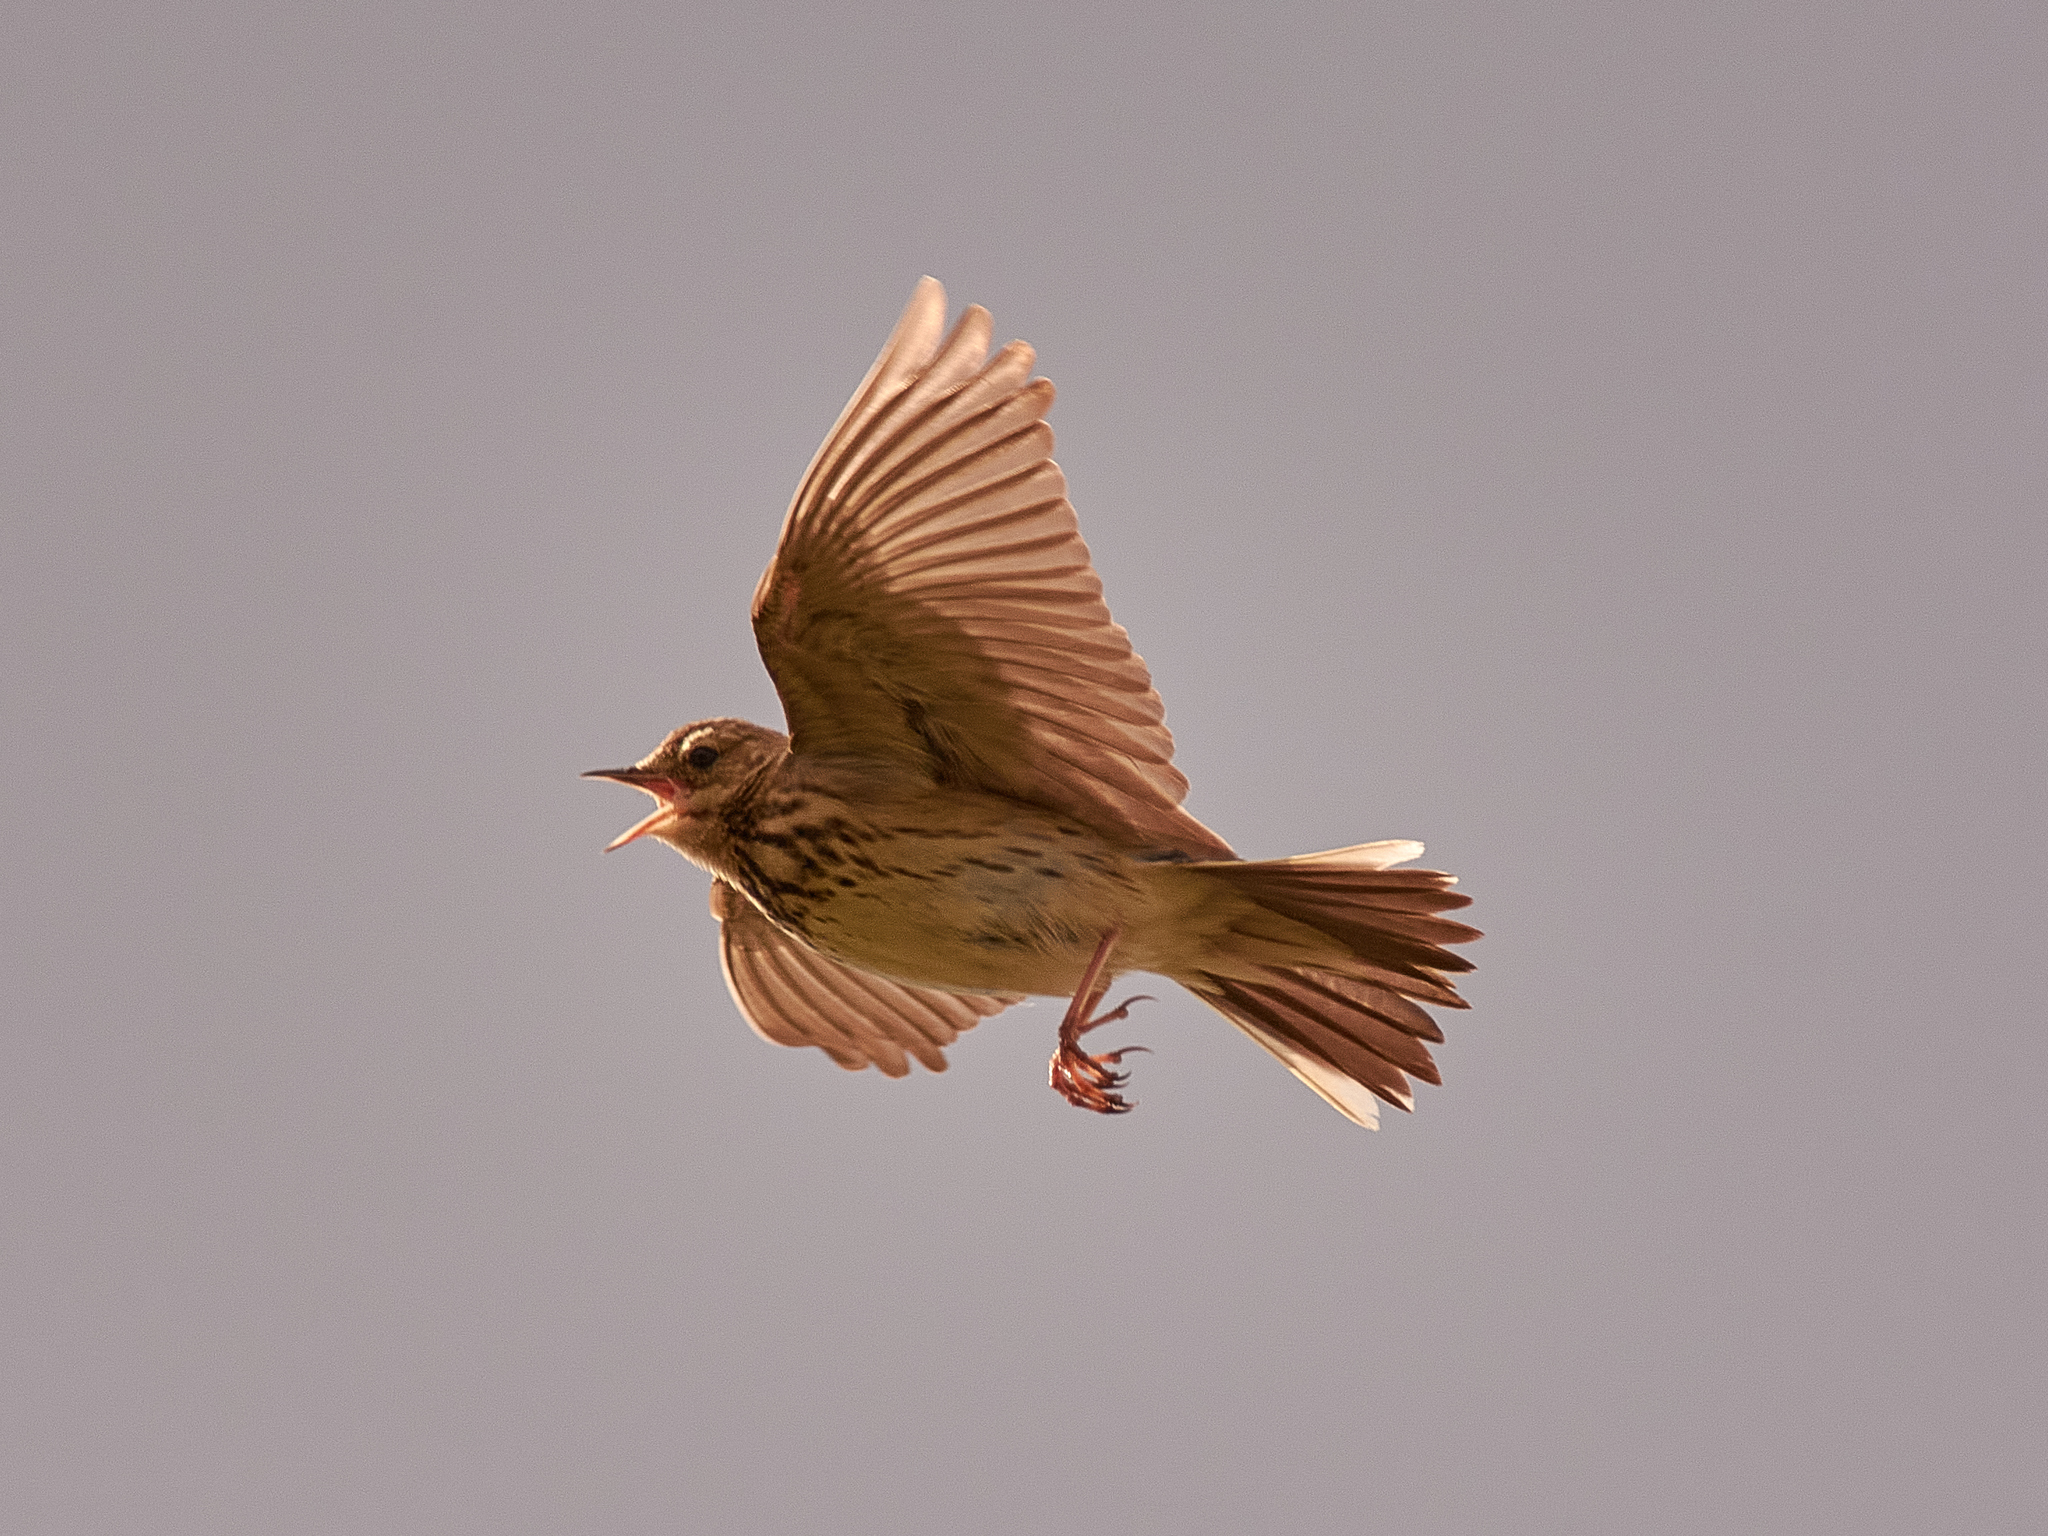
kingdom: Animalia
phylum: Chordata
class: Aves
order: Passeriformes
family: Motacillidae
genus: Anthus
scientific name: Anthus trivialis
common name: Tree pipit
